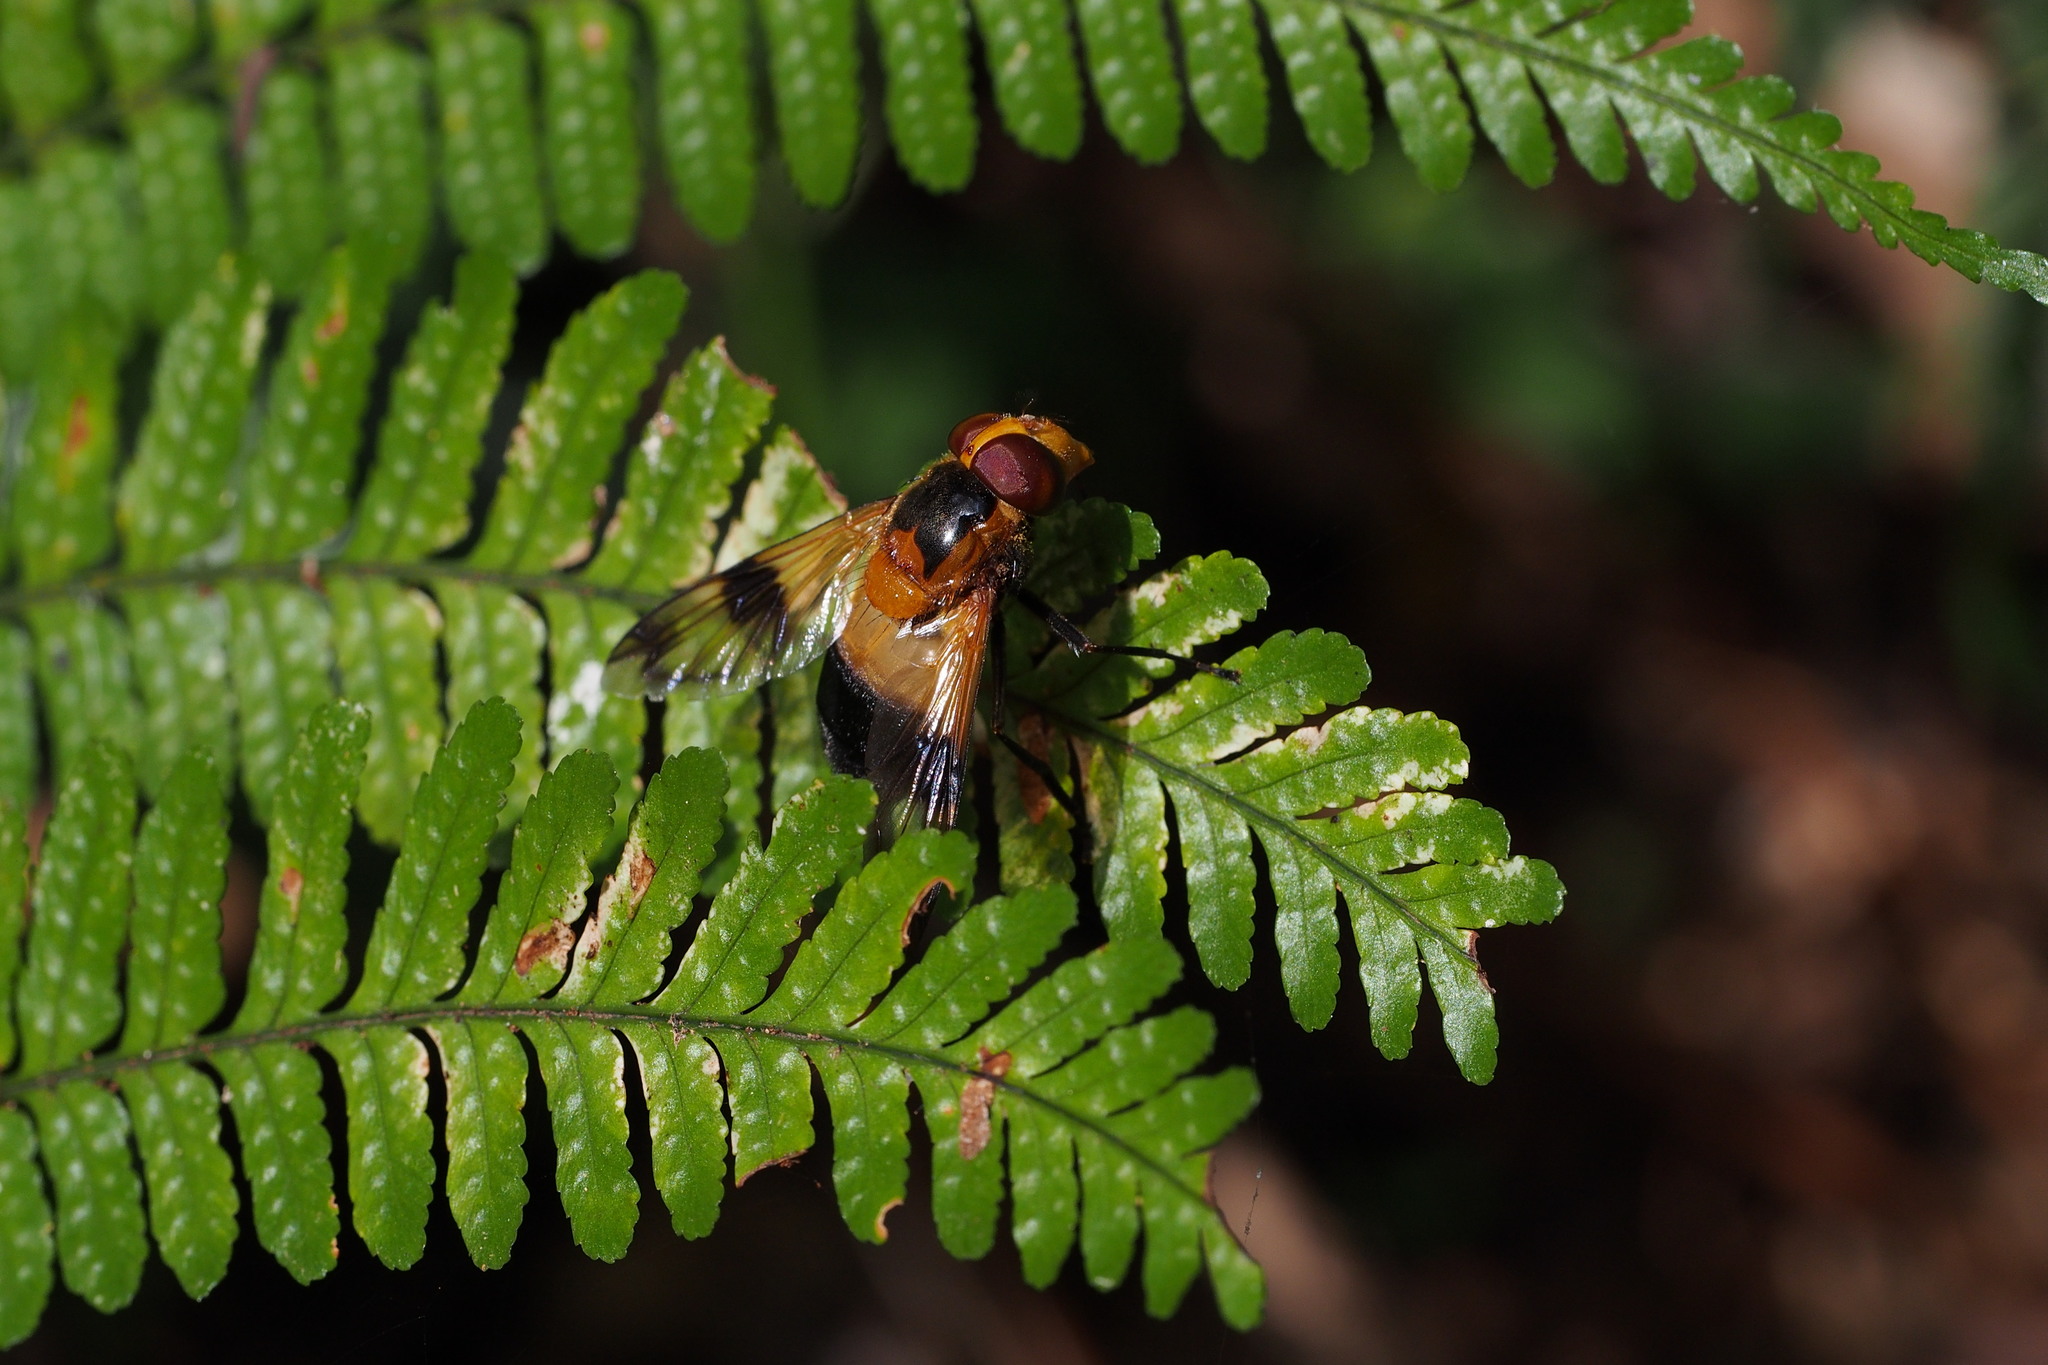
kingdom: Animalia
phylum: Arthropoda
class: Insecta
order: Diptera
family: Syrphidae
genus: Volucella
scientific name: Volucella tabanoides
